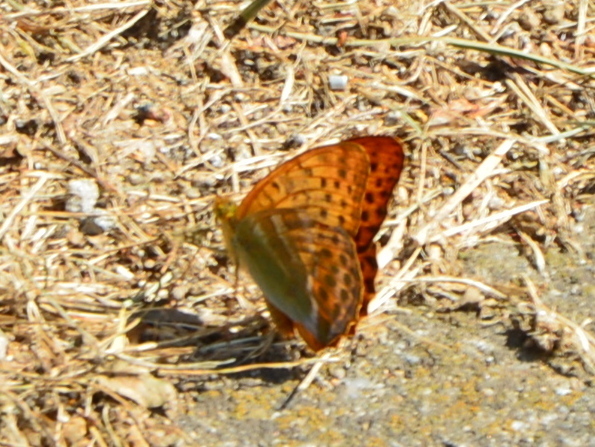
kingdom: Animalia
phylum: Arthropoda
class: Insecta
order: Lepidoptera
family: Nymphalidae
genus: Argynnis
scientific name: Argynnis paphia
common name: Silver-washed fritillary
